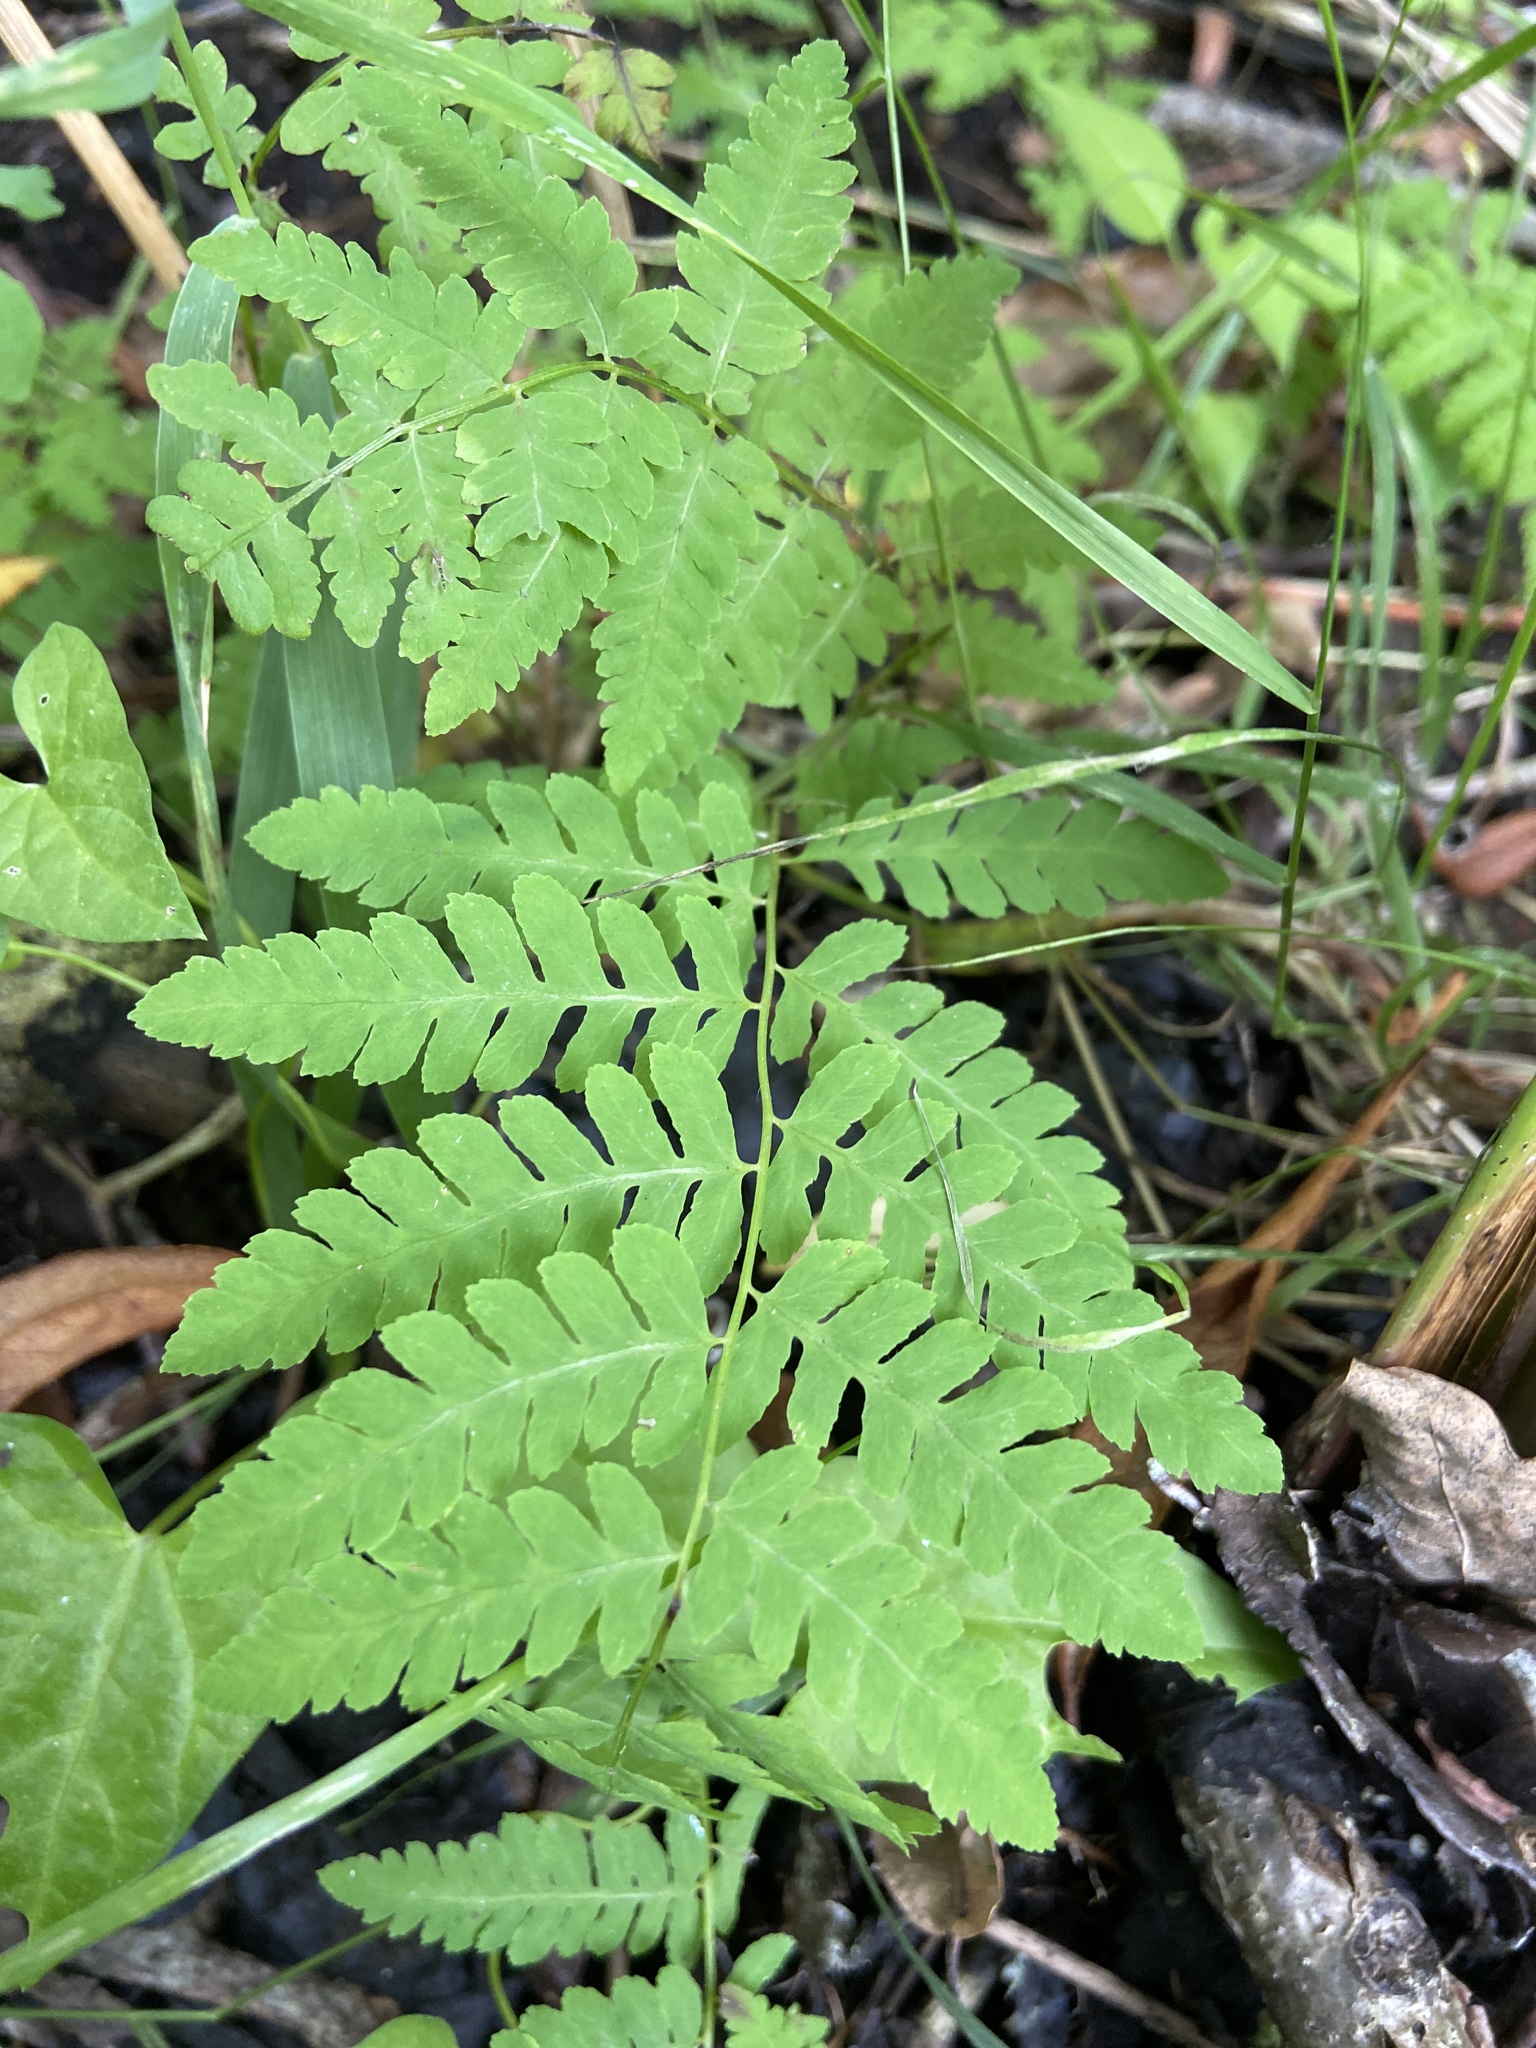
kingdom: Plantae
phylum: Tracheophyta
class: Polypodiopsida
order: Polypodiales
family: Thelypteridaceae
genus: Thelypteris
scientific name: Thelypteris palustris
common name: Marsh fern
